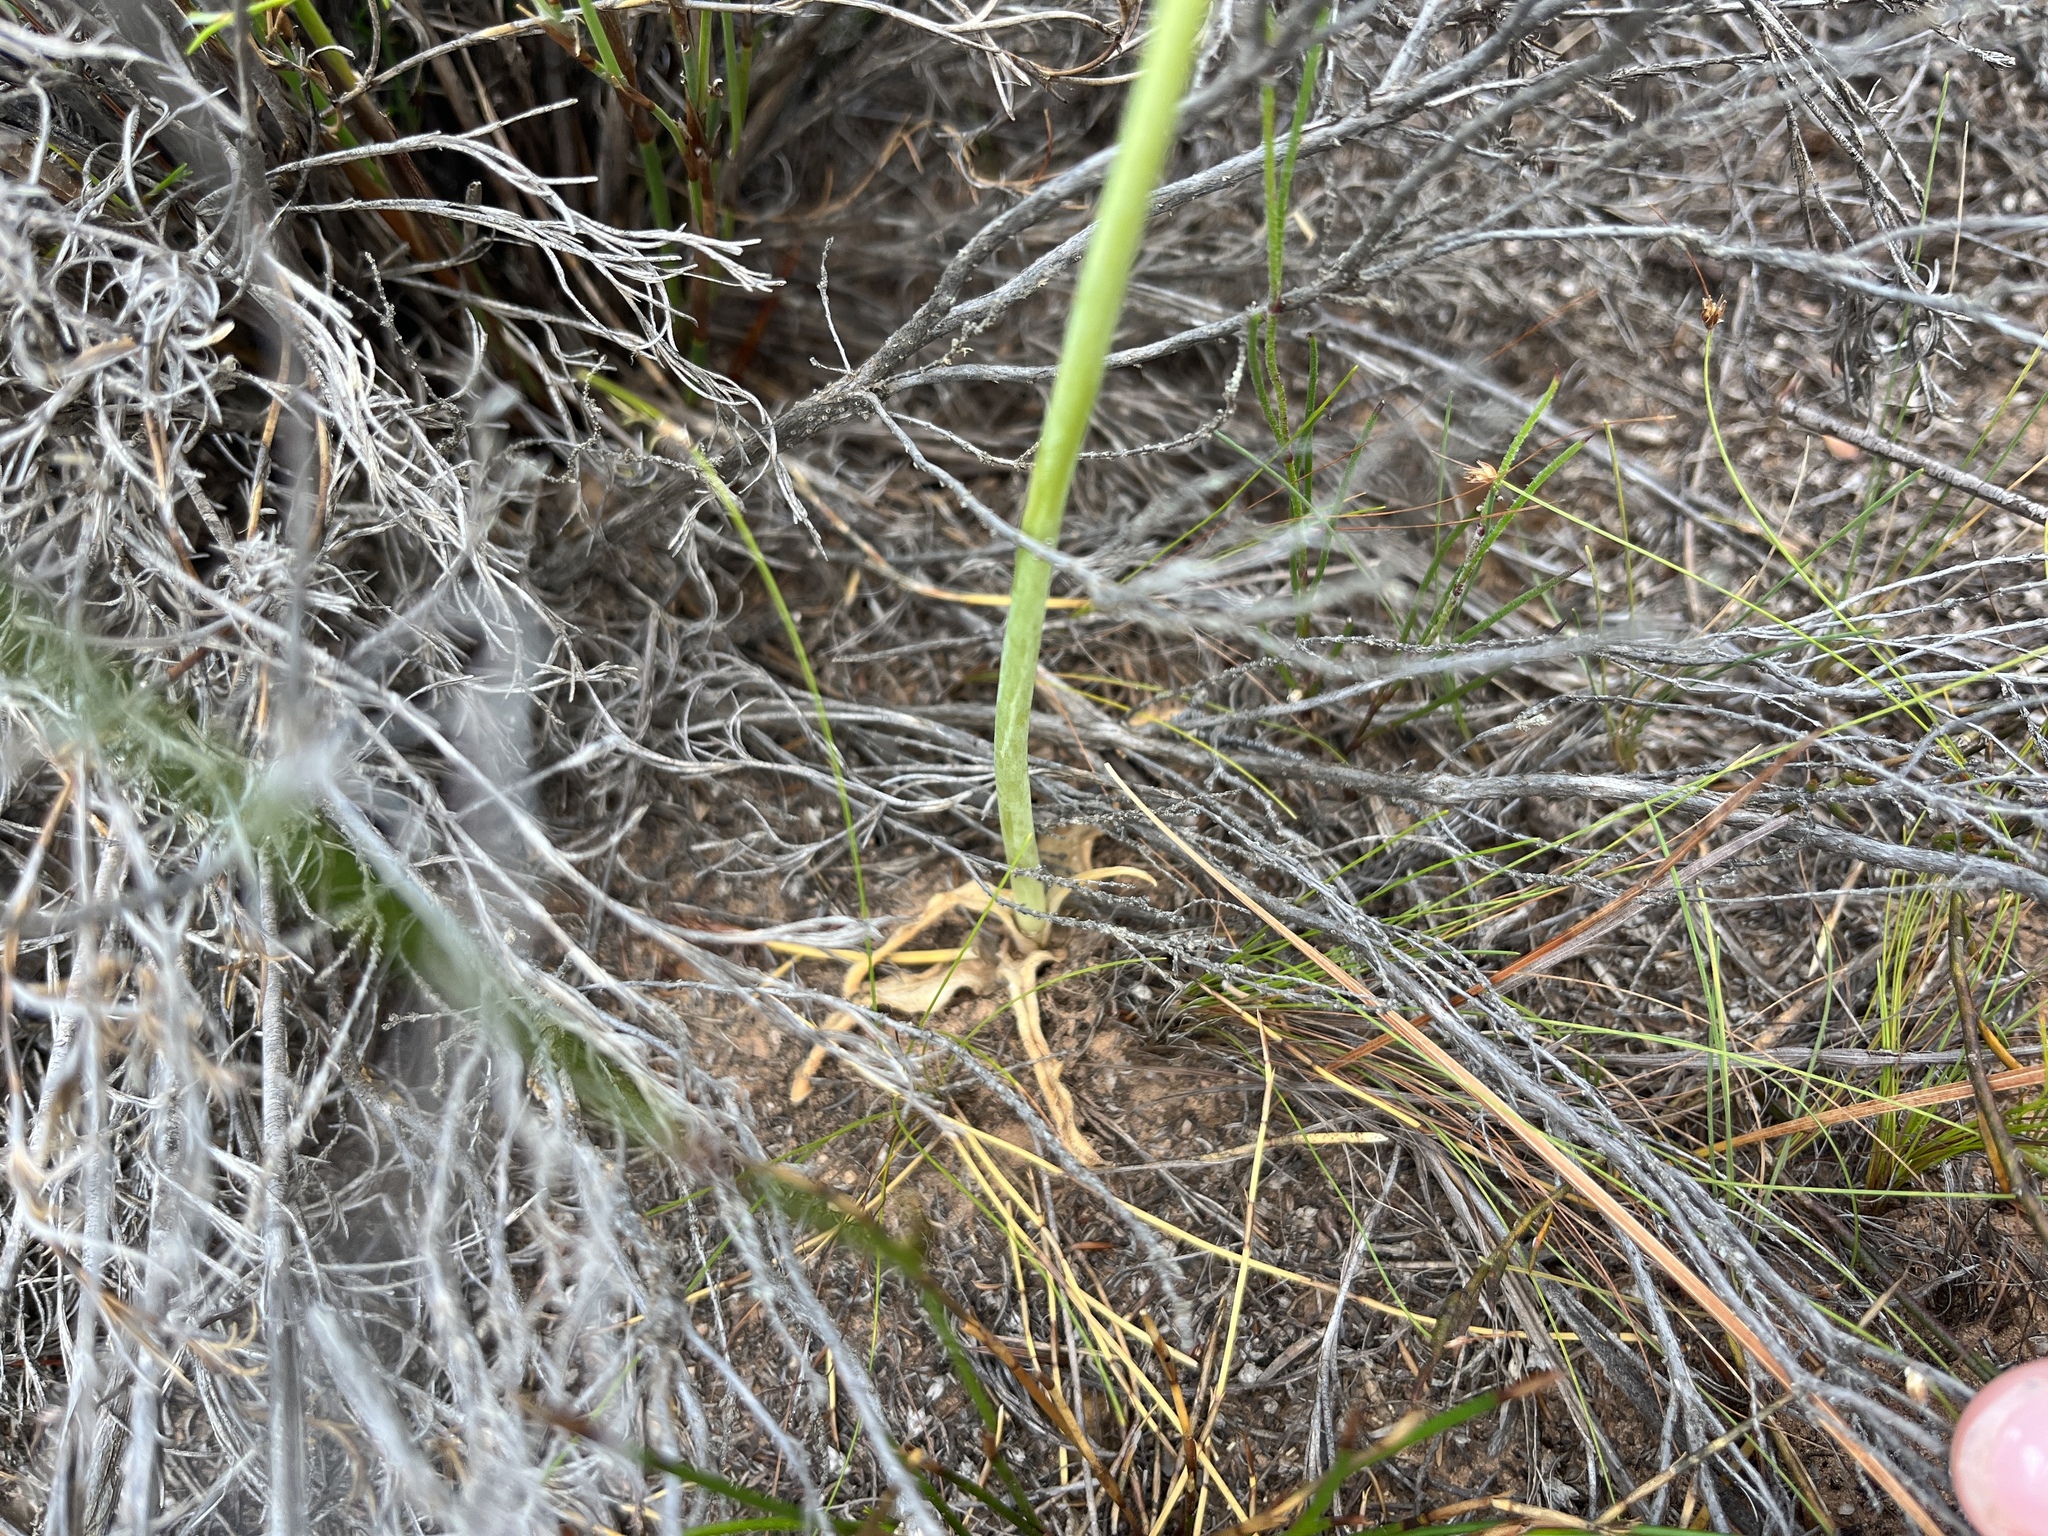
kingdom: Plantae
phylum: Tracheophyta
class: Liliopsida
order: Asparagales
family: Asparagaceae
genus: Ornithogalum
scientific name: Ornithogalum dubium
